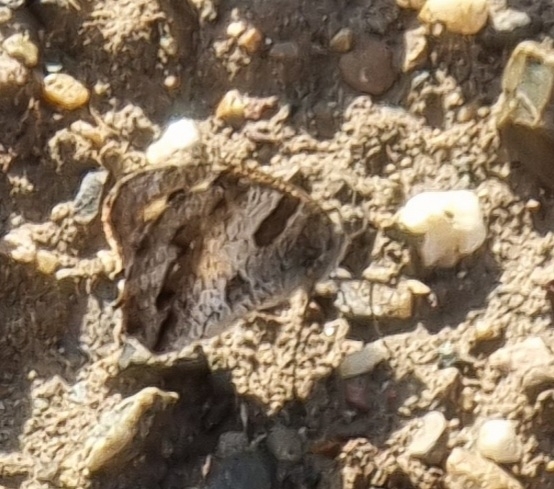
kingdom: Animalia
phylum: Arthropoda
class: Insecta
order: Lepidoptera
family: Nymphalidae
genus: Satyrus
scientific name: Satyrus briseis
